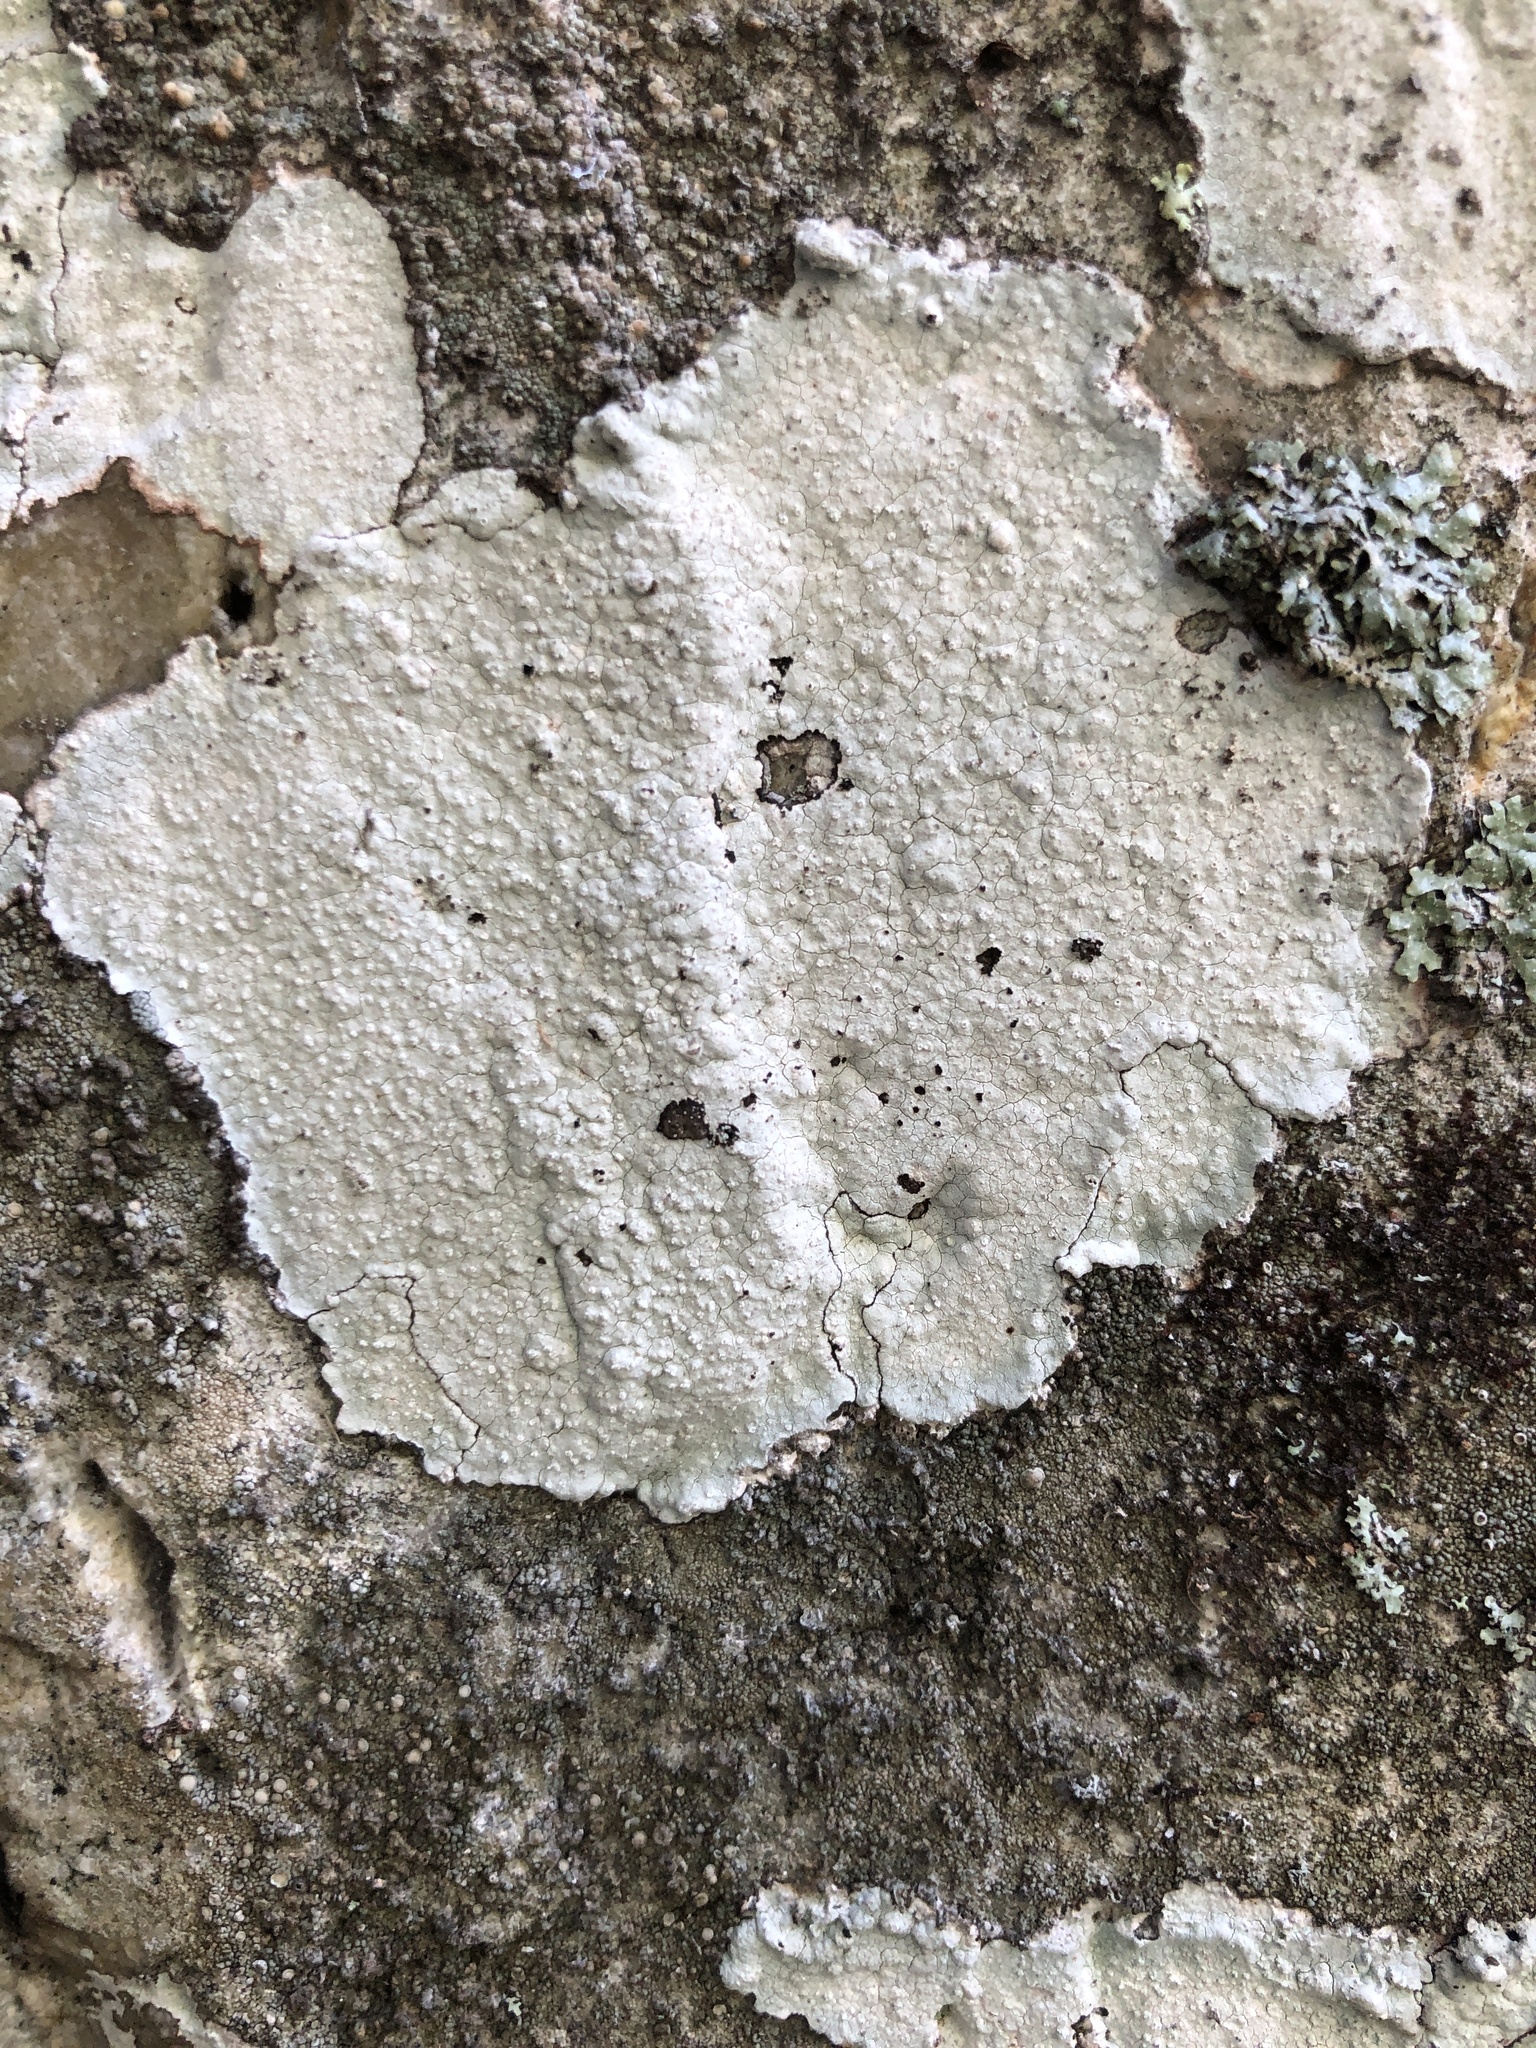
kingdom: Fungi
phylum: Ascomycota
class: Lecanoromycetes
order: Ostropales
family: Phlyctidaceae
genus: Phlyctis
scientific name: Phlyctis petraea
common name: Eggshell rock blaze
